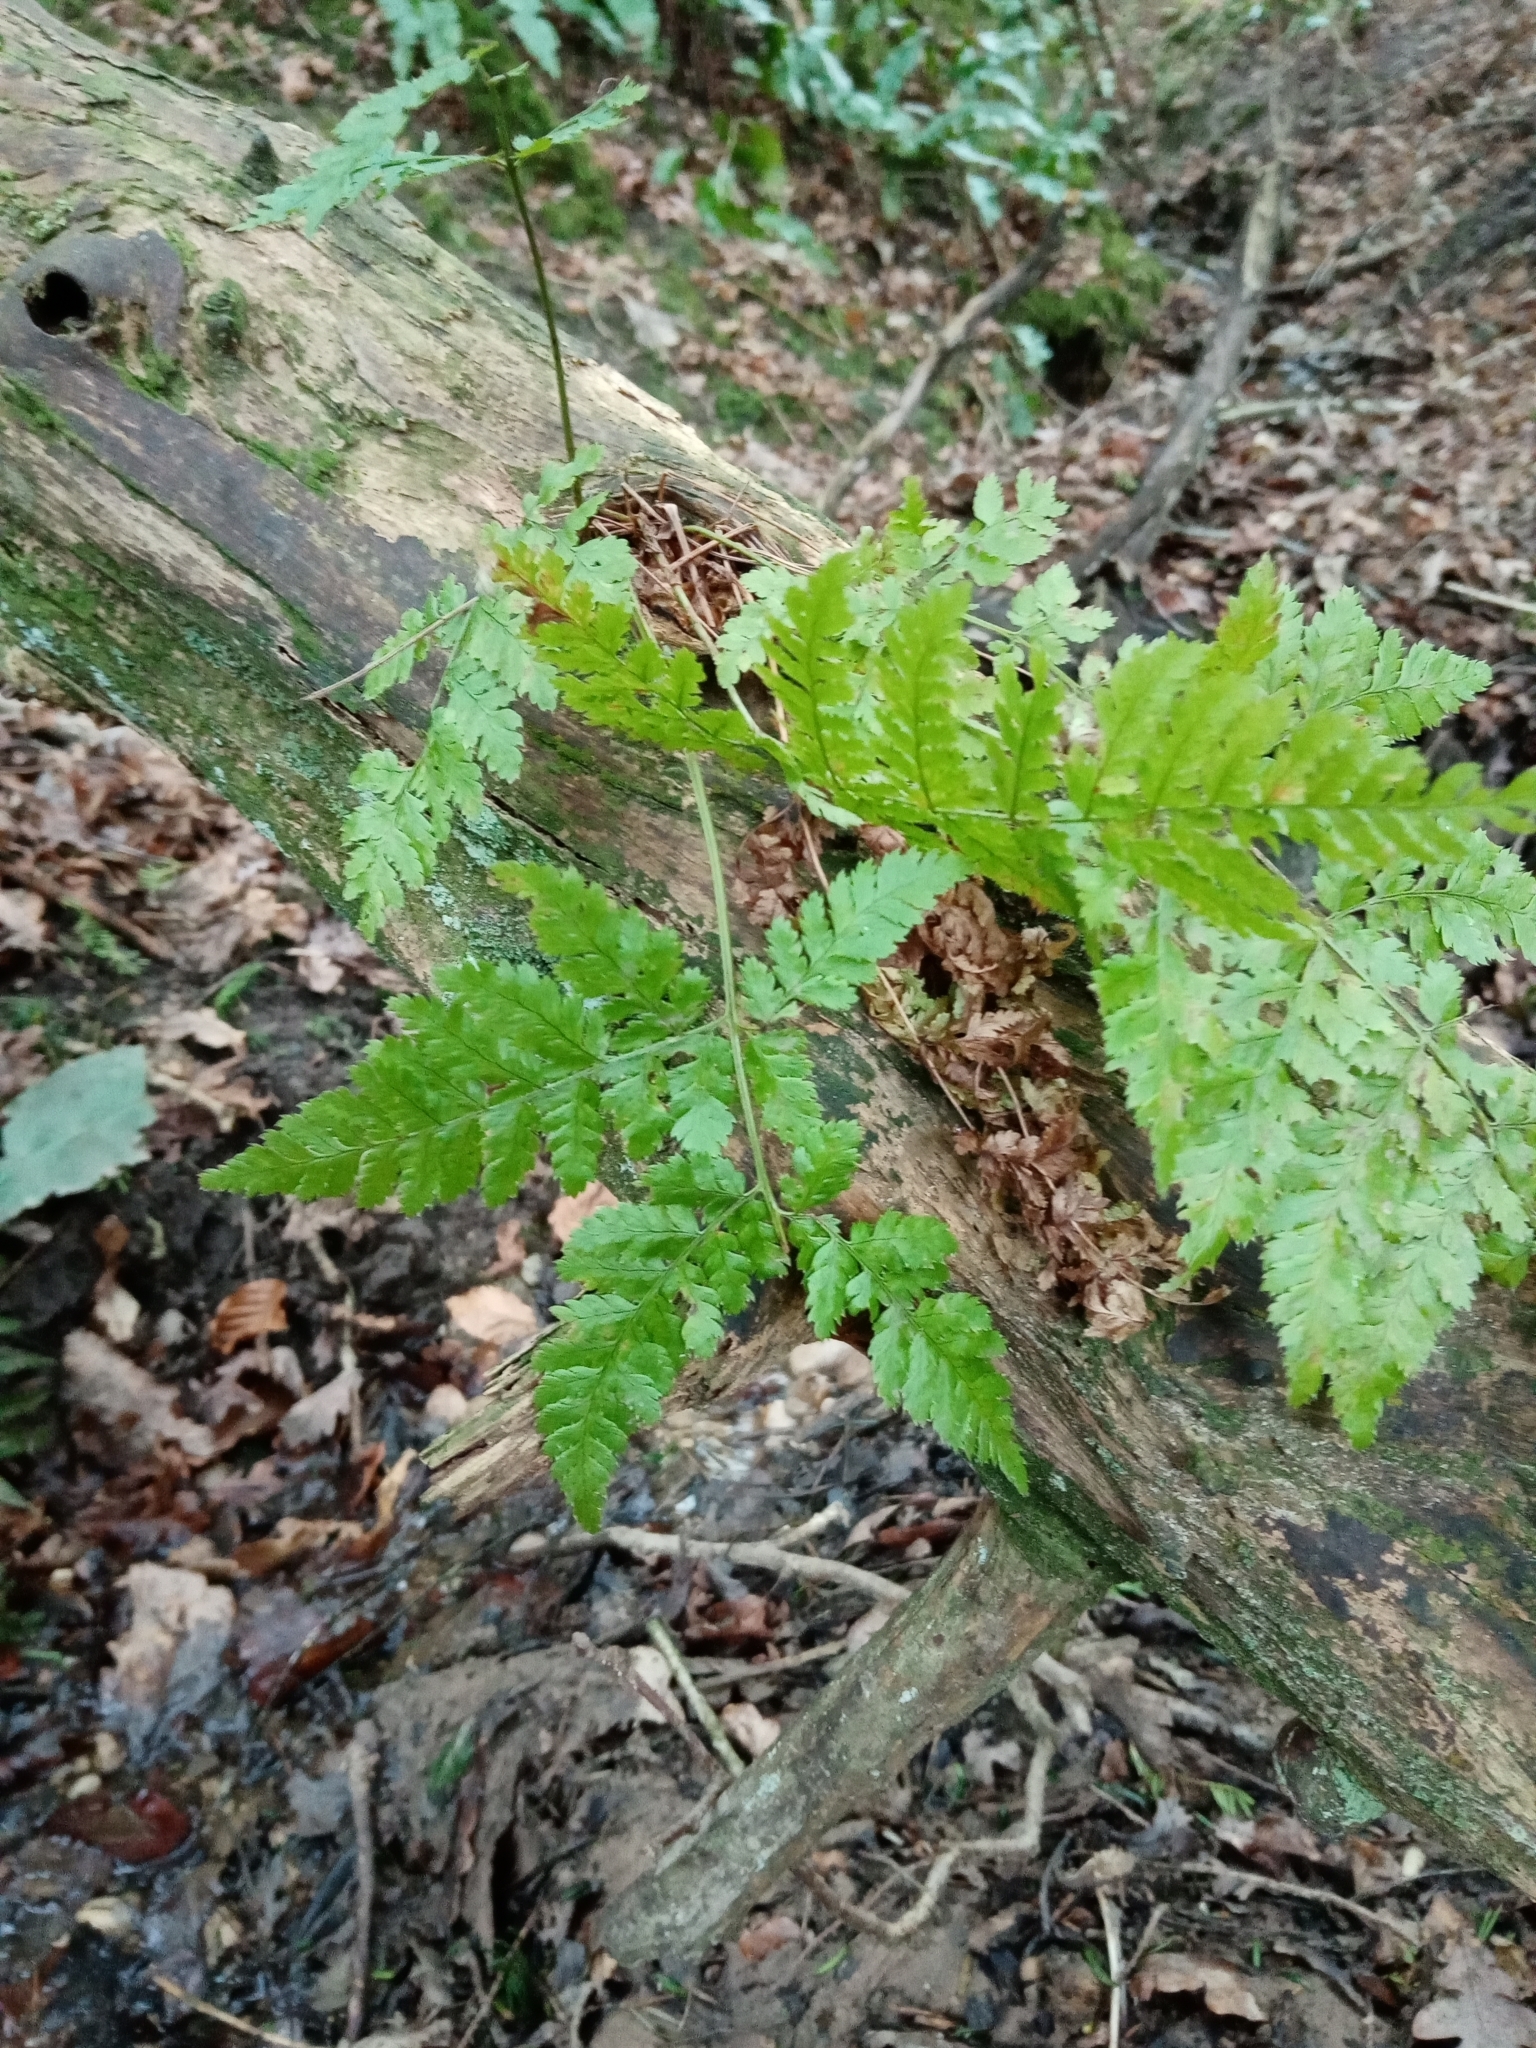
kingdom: Plantae
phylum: Tracheophyta
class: Polypodiopsida
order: Polypodiales
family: Dryopteridaceae
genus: Dryopteris
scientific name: Dryopteris dilatata
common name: Broad buckler-fern
